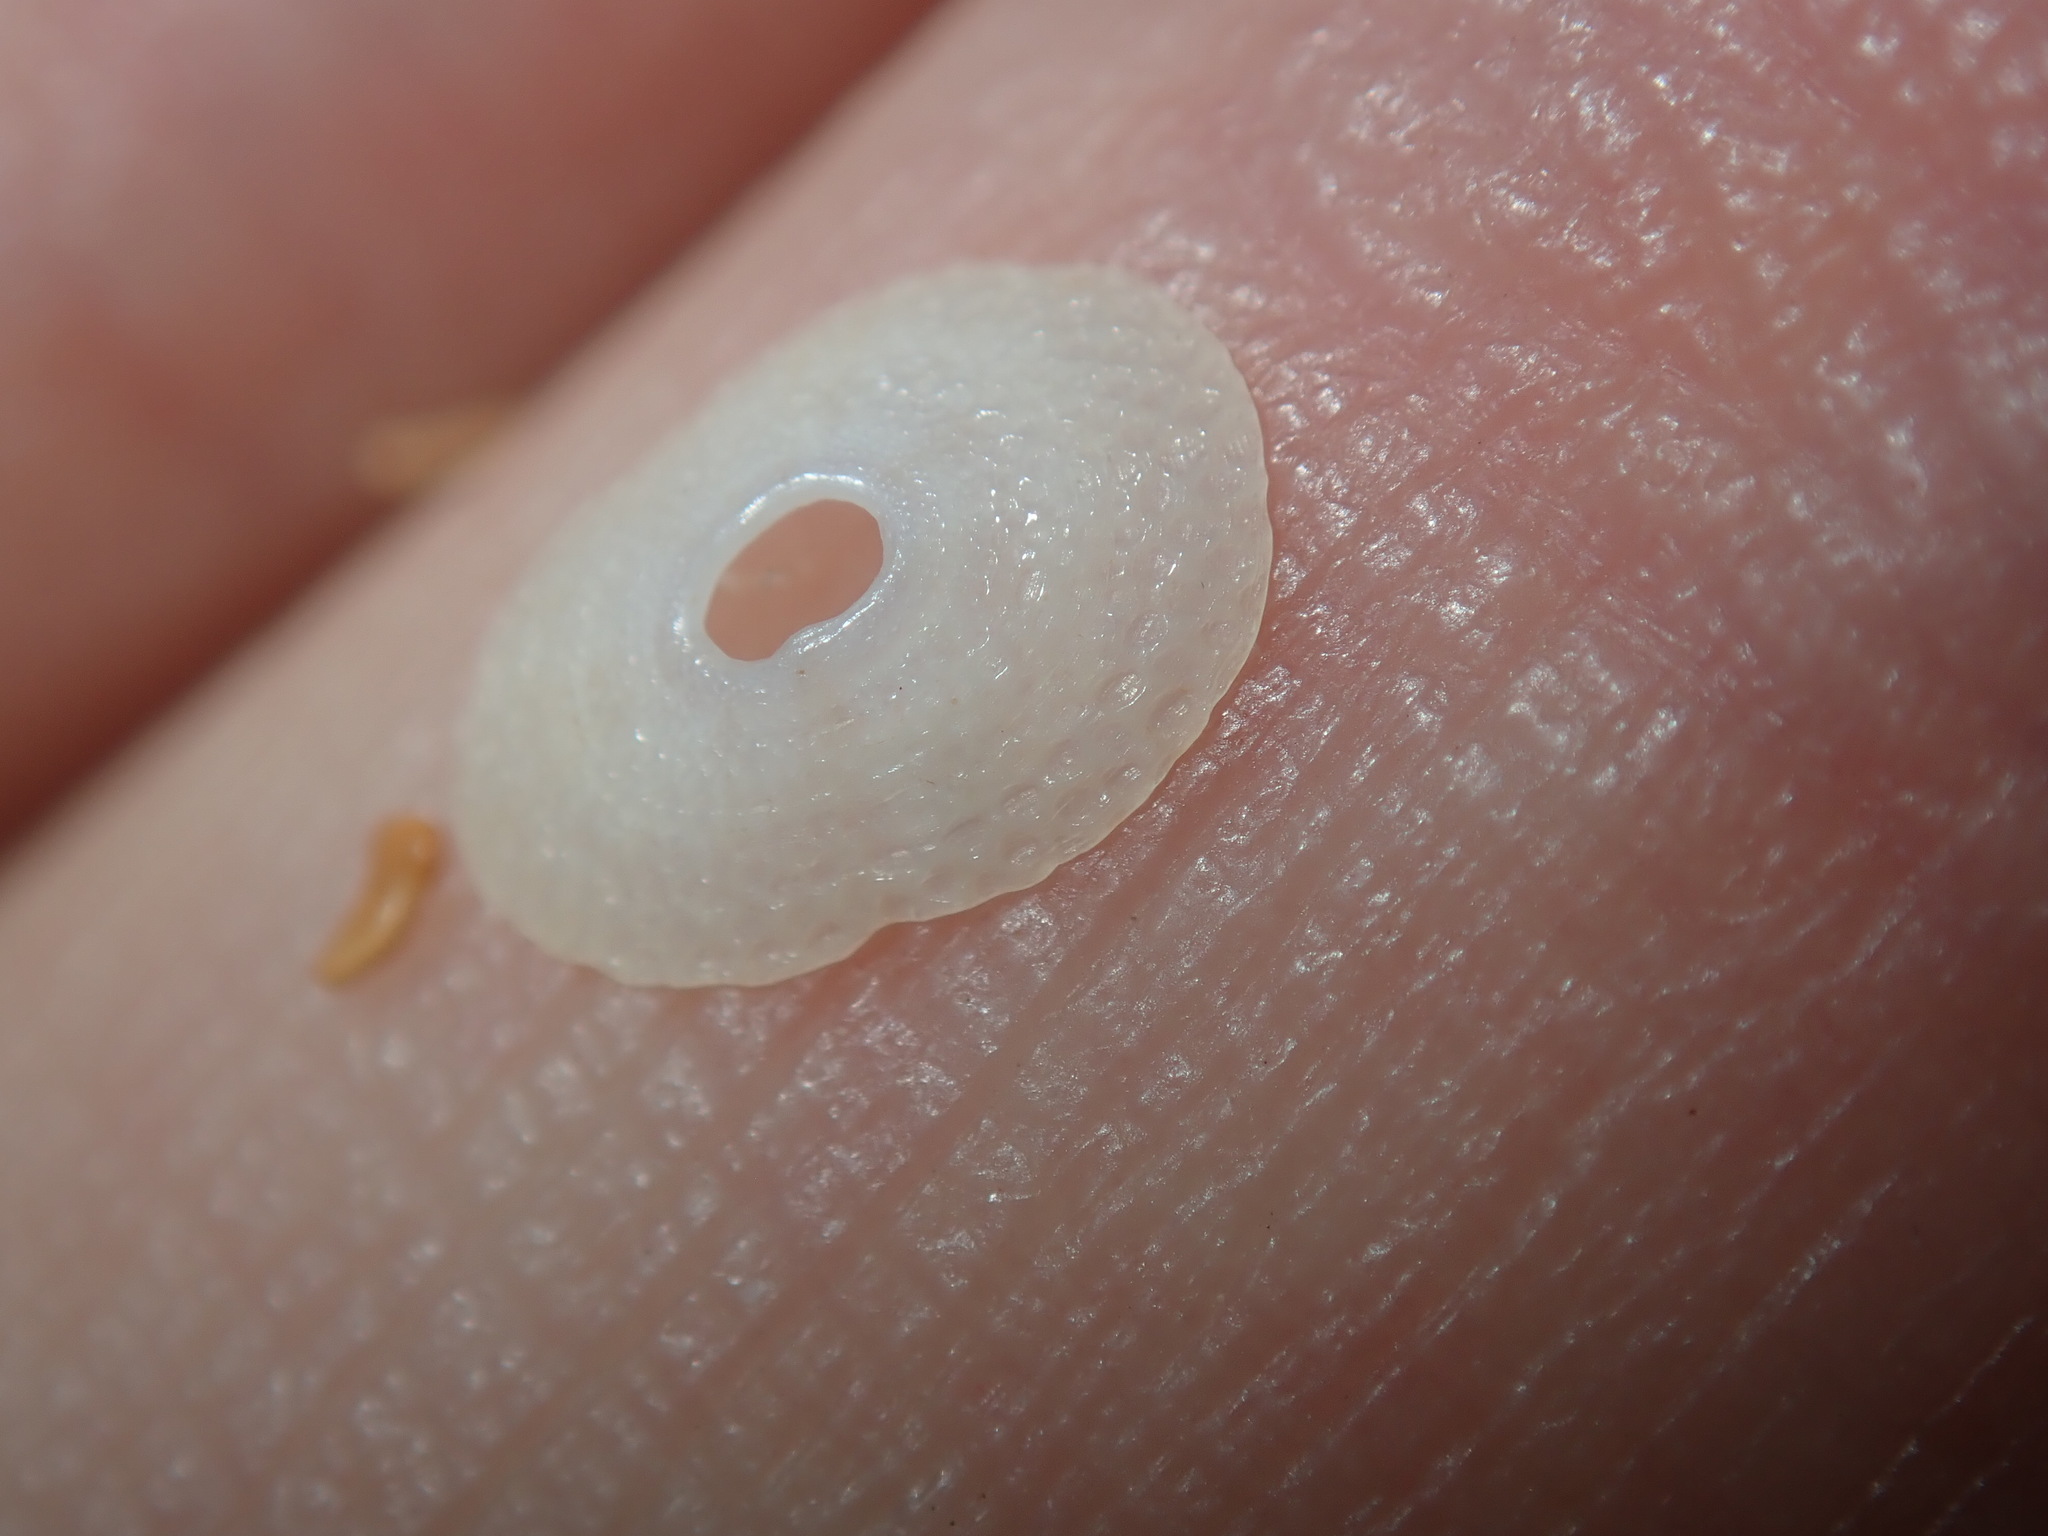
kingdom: Animalia
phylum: Mollusca
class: Gastropoda
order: Lepetellida
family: Fissurellidae
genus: Cosmetalepas
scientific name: Cosmetalepas concatenata
